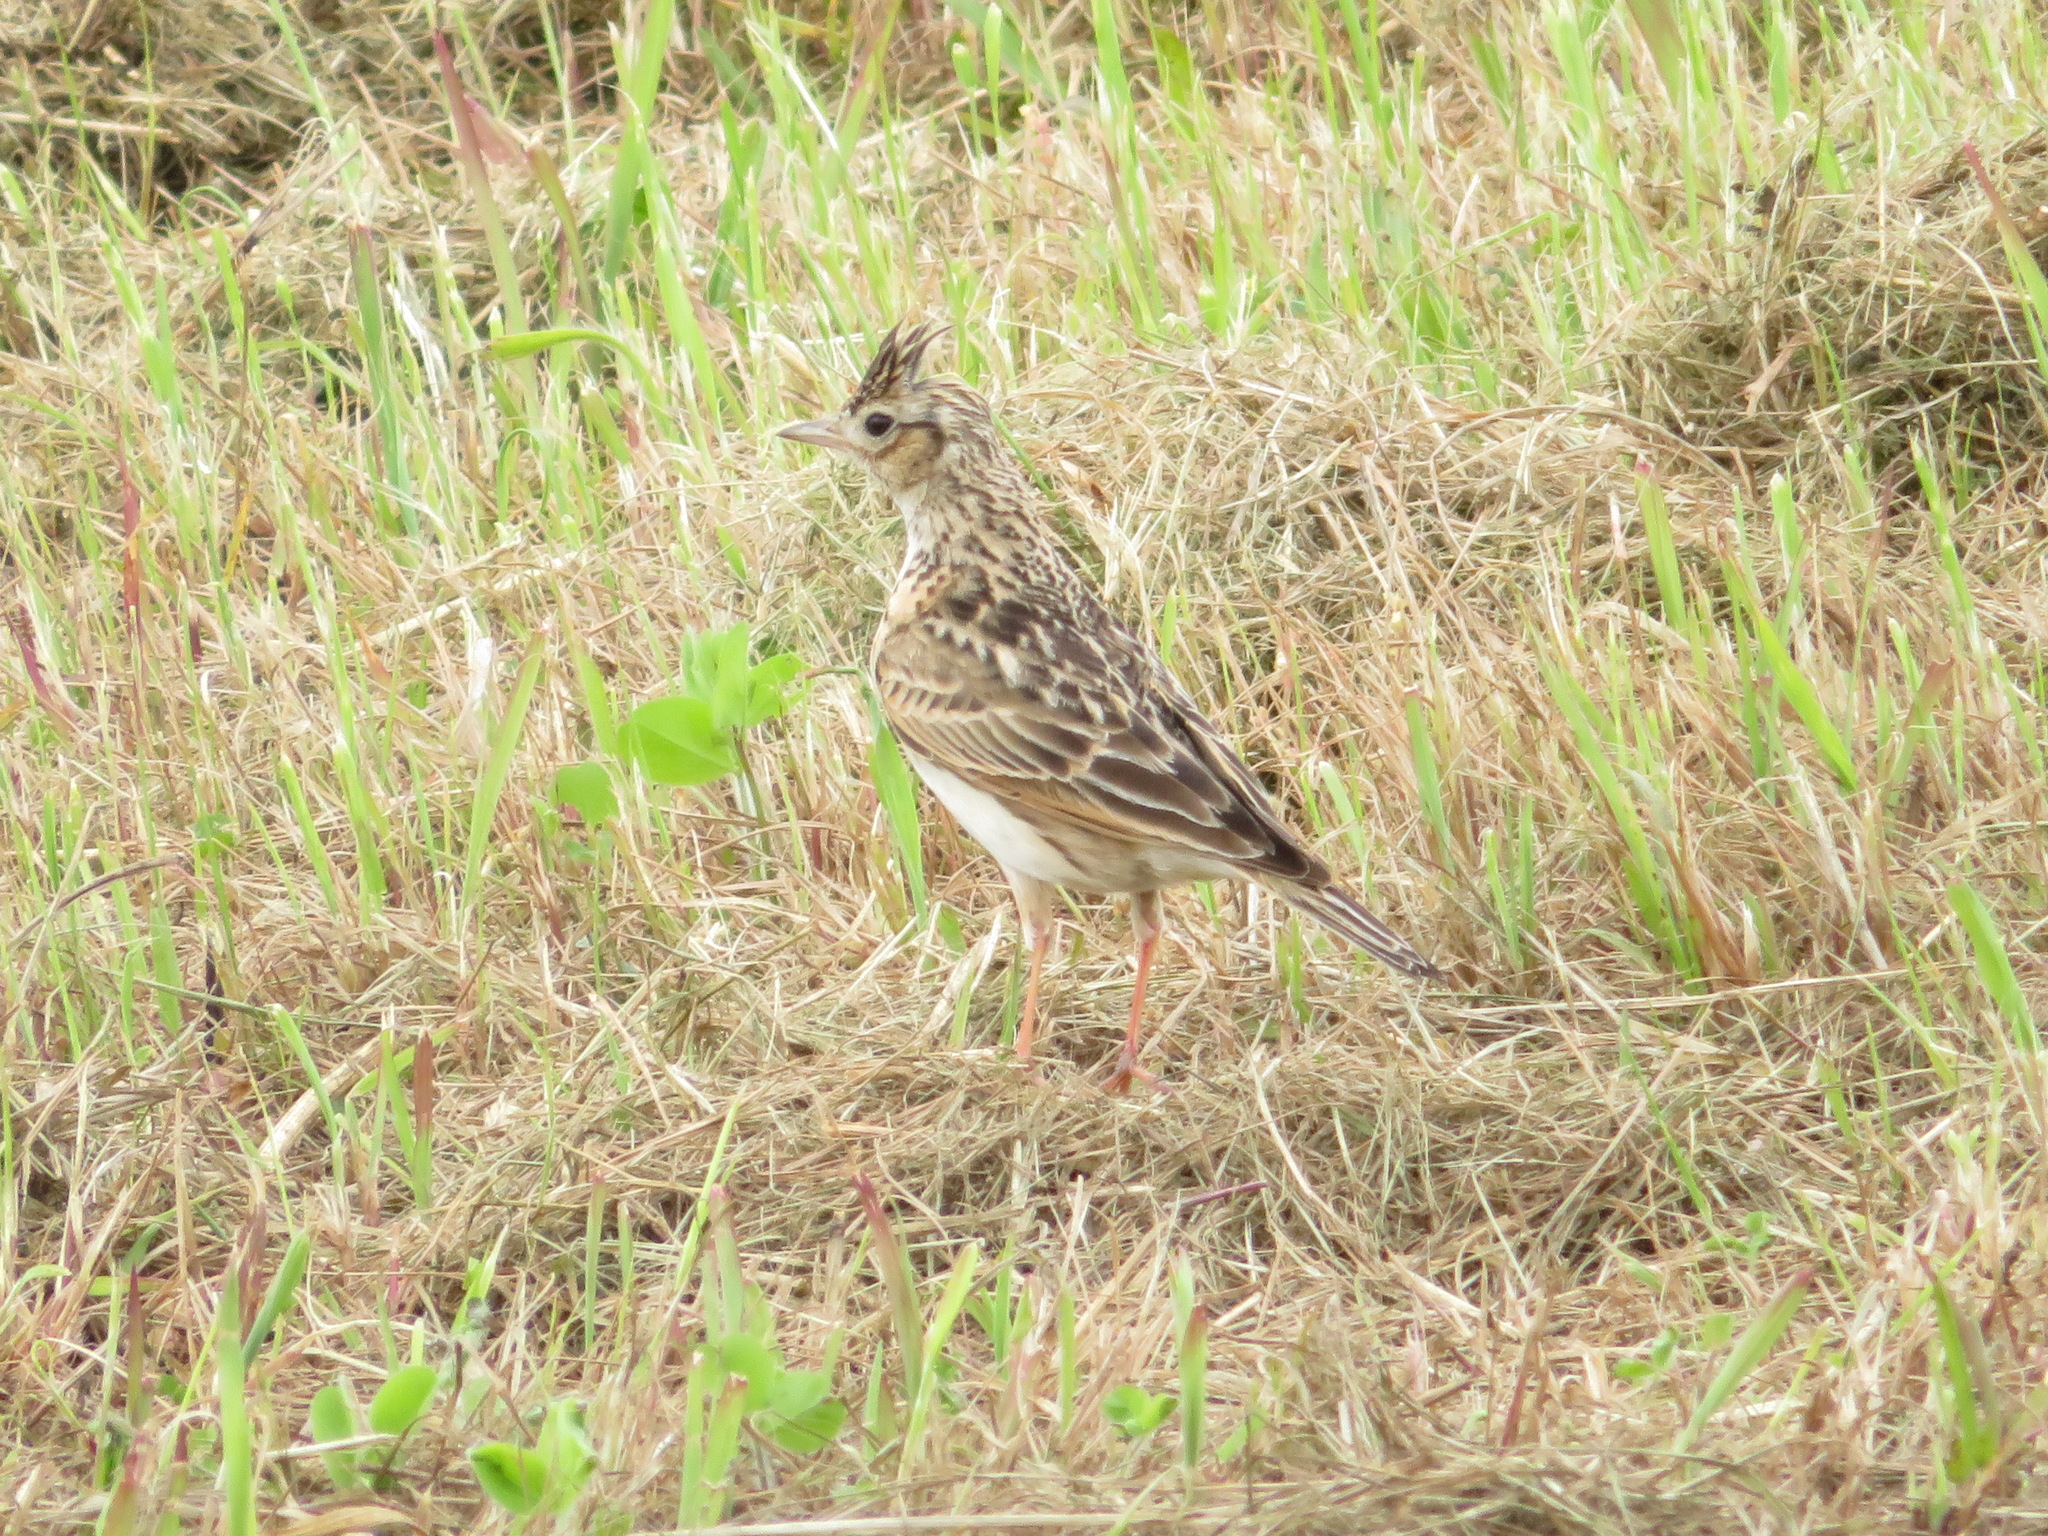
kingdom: Animalia
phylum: Chordata
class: Aves
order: Passeriformes
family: Alaudidae
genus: Alauda
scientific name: Alauda arvensis
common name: Eurasian skylark
